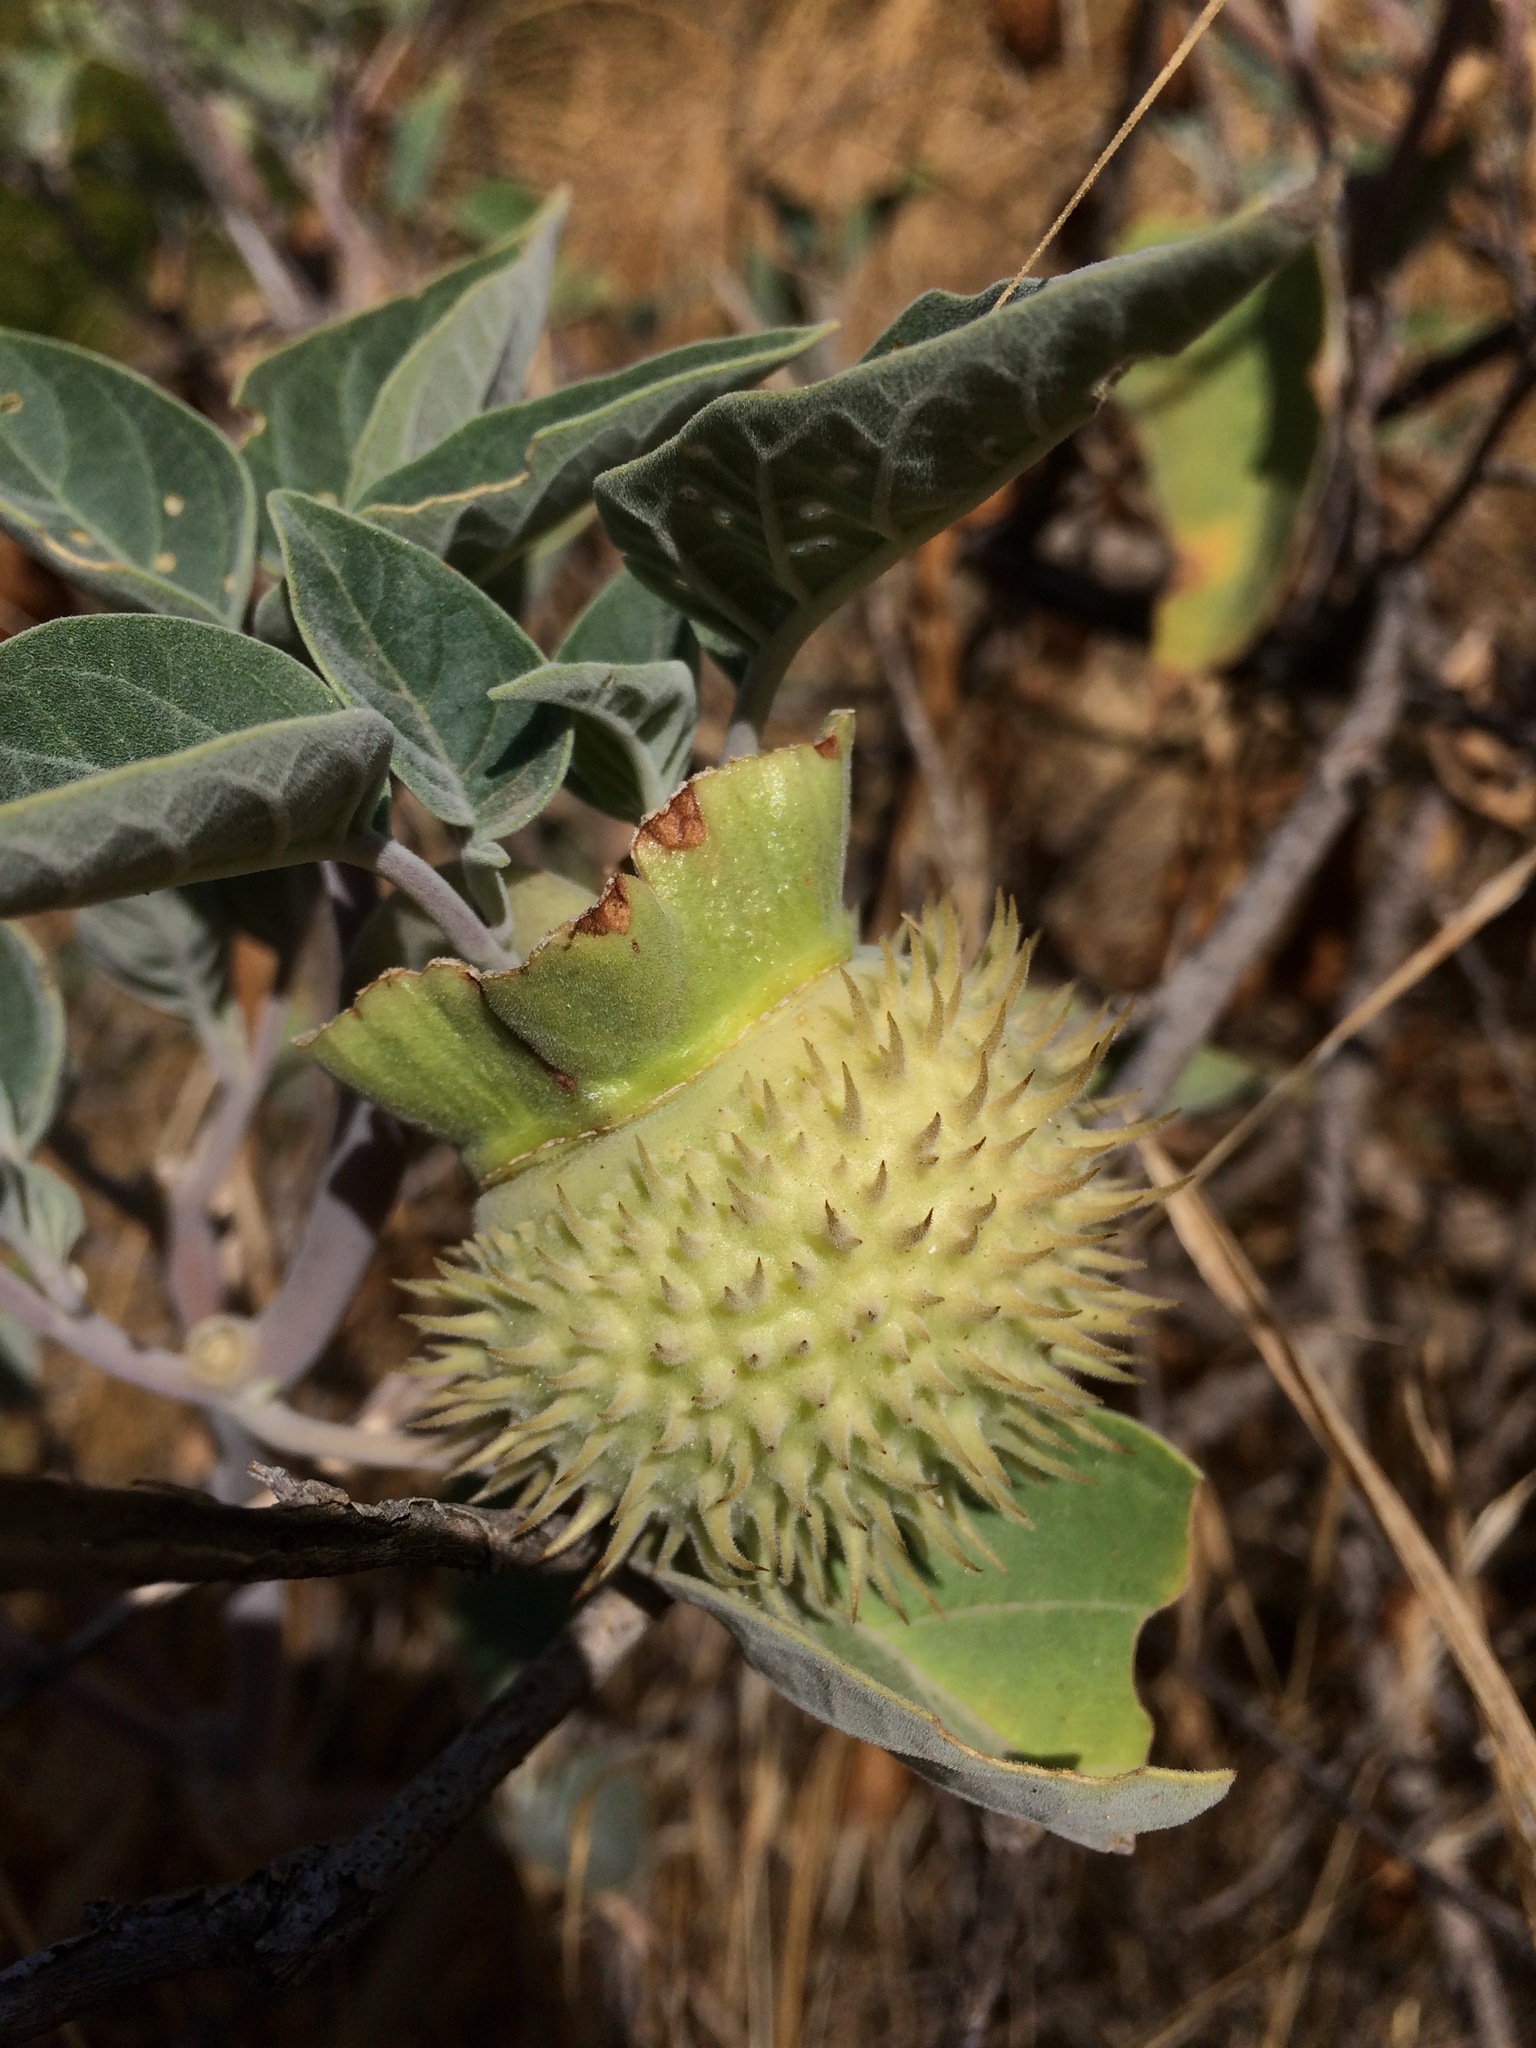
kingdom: Plantae
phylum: Tracheophyta
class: Magnoliopsida
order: Solanales
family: Solanaceae
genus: Datura
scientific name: Datura wrightii
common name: Sacred thorn-apple
